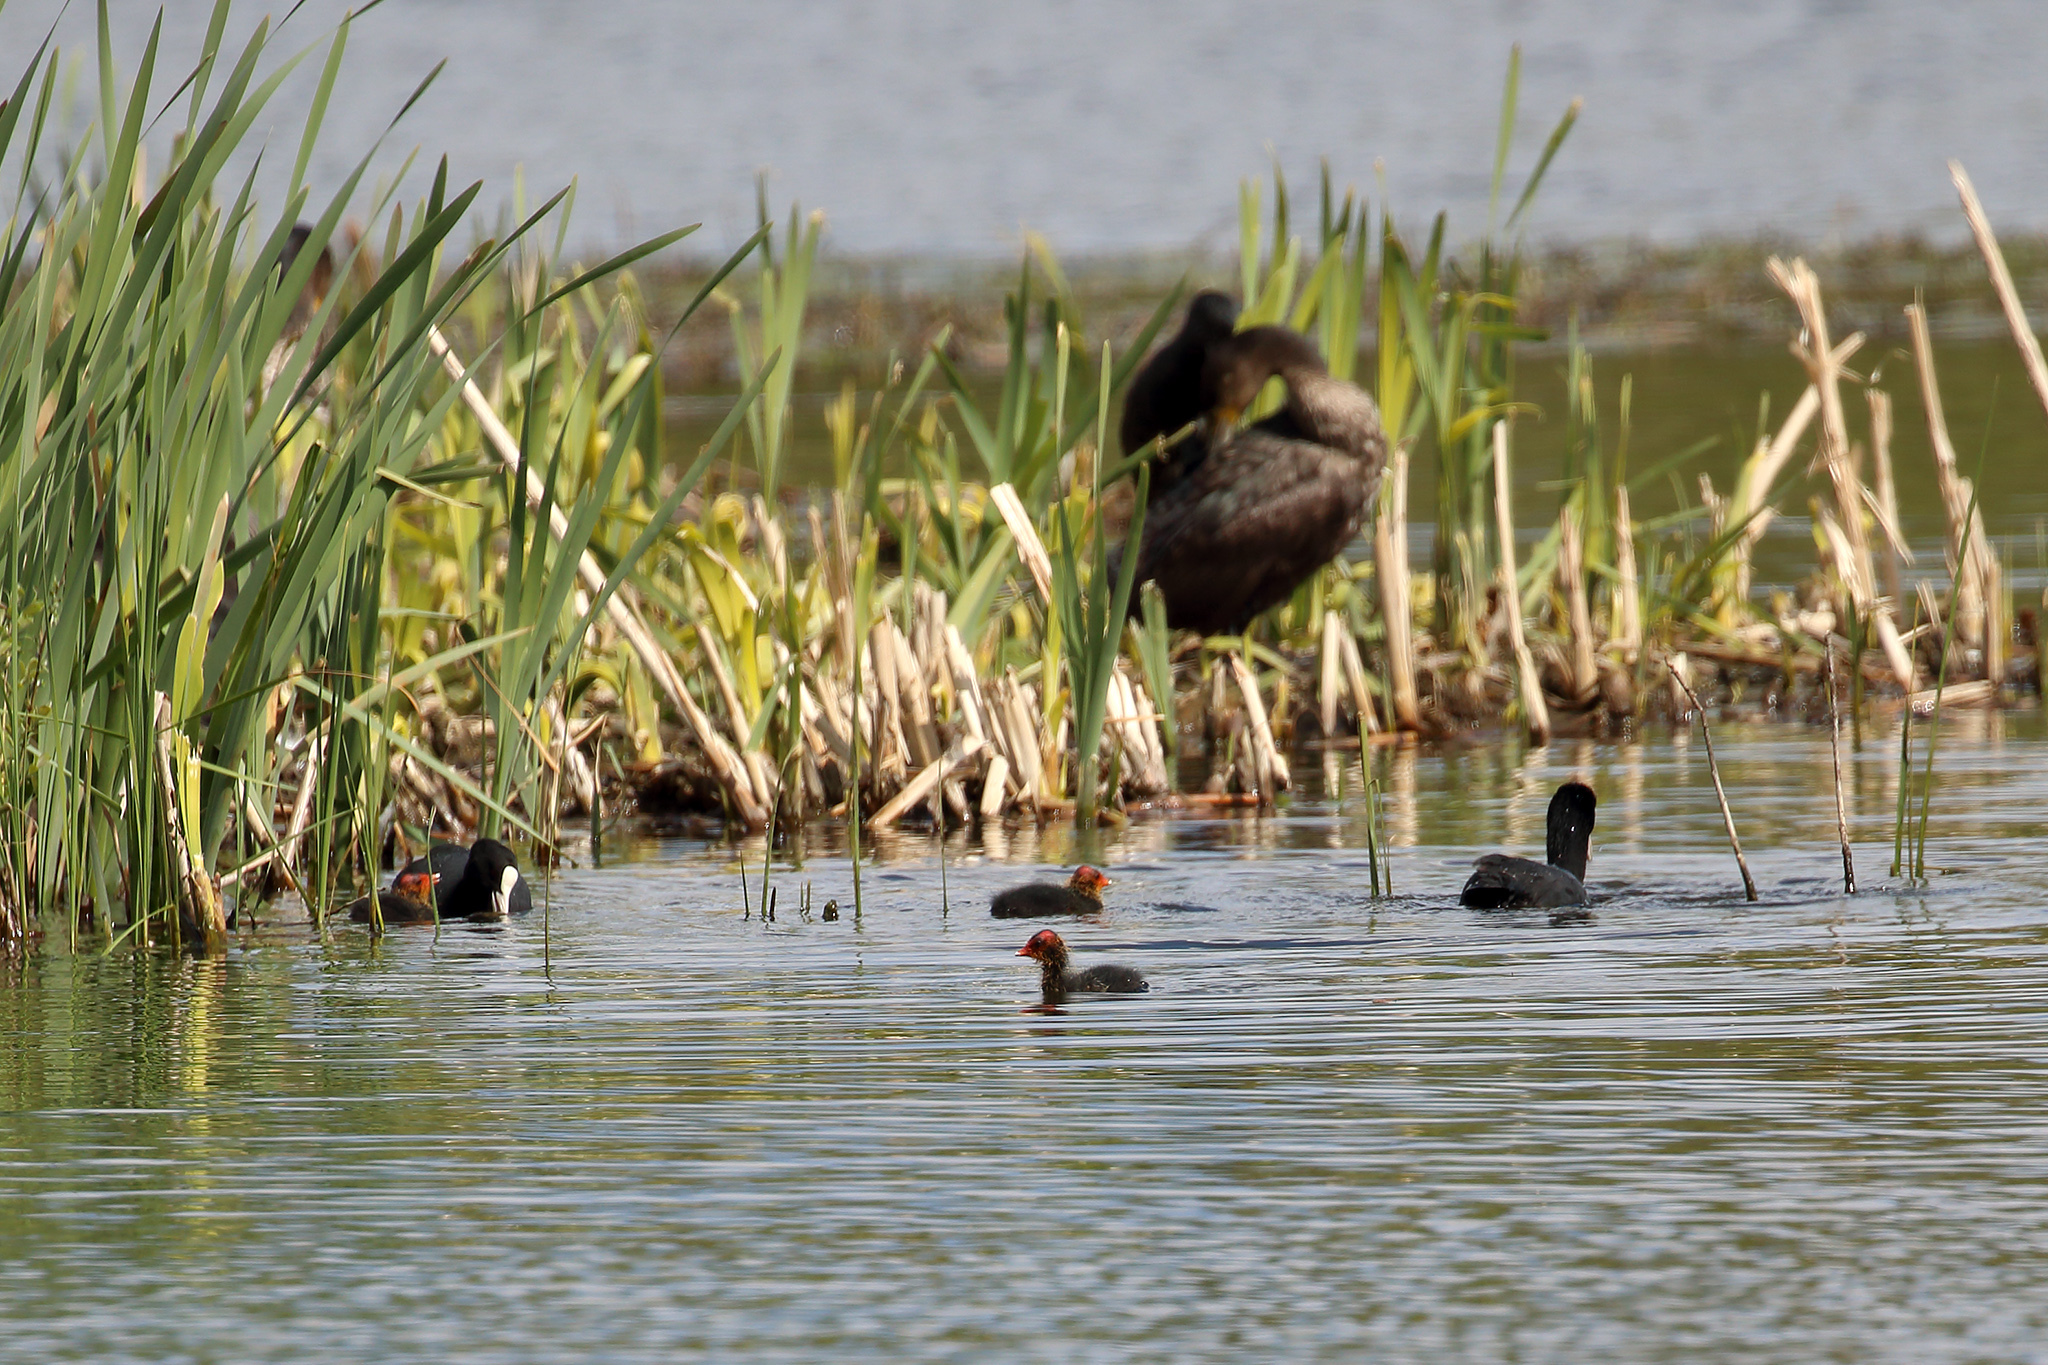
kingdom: Animalia
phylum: Chordata
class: Aves
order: Gruiformes
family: Rallidae
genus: Fulica
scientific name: Fulica atra
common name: Eurasian coot
